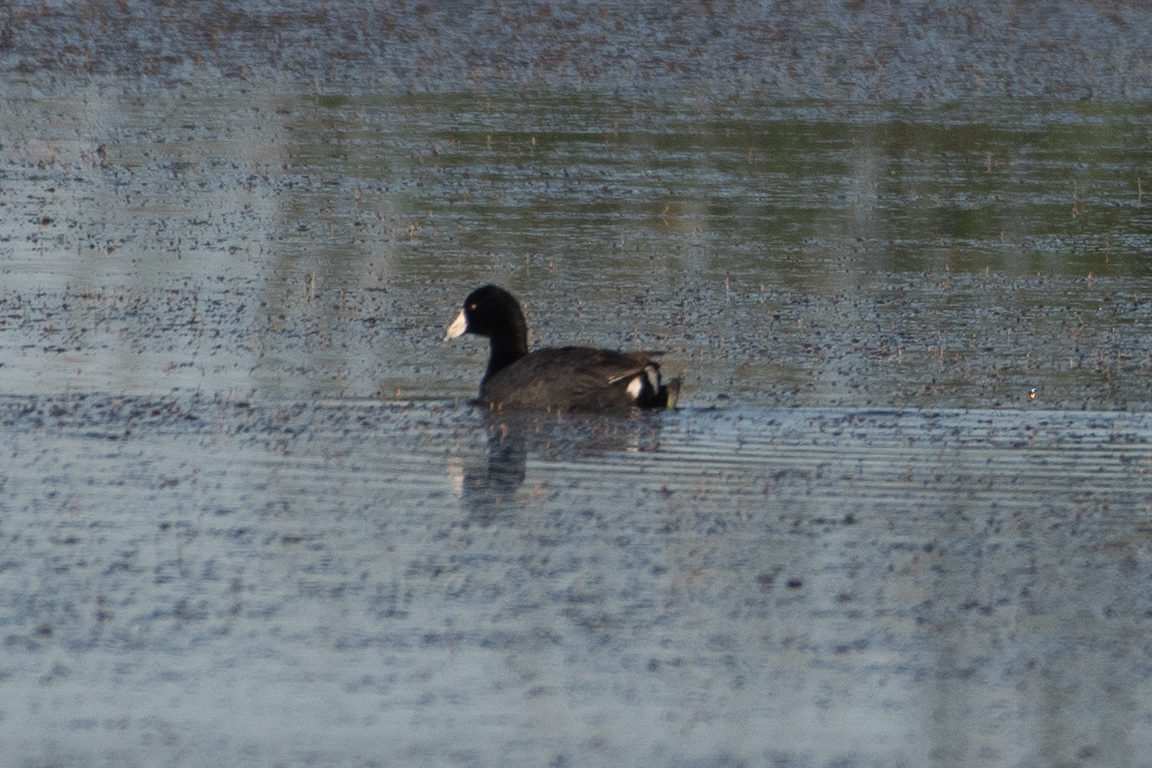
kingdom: Animalia
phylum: Chordata
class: Aves
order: Gruiformes
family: Rallidae
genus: Fulica
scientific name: Fulica americana
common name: American coot
